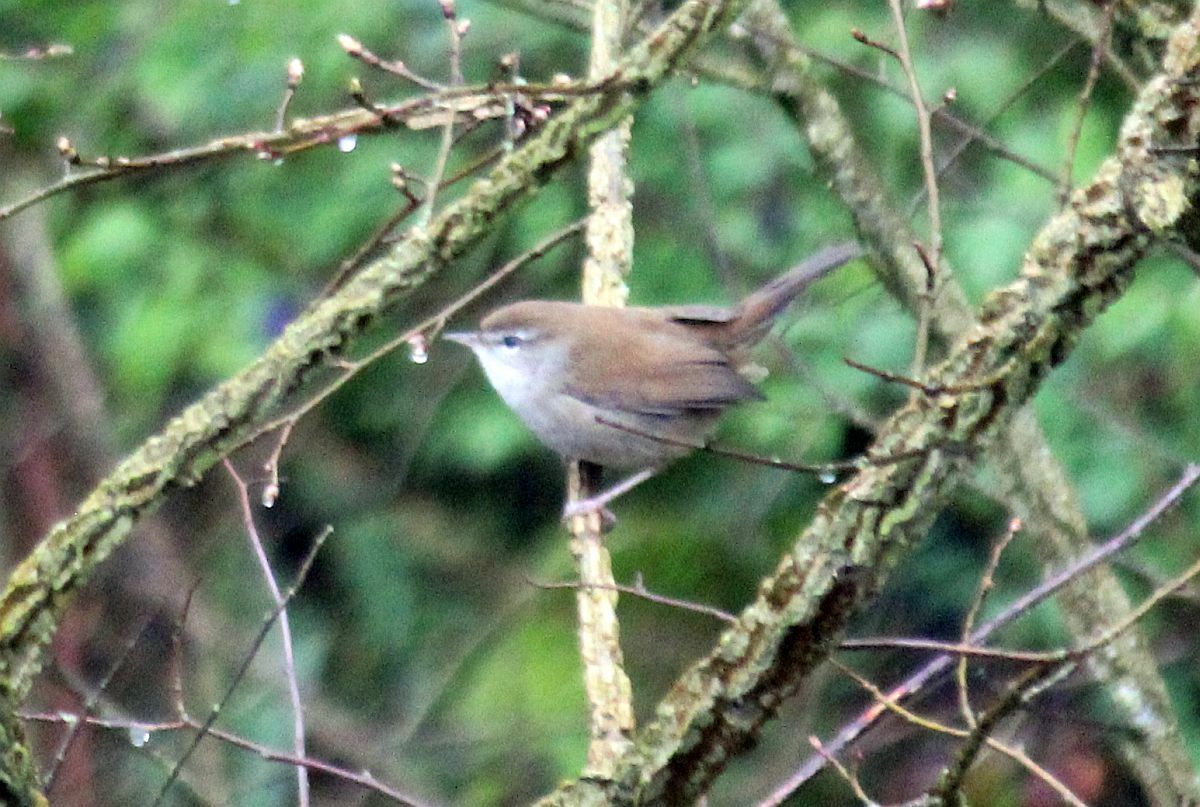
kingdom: Animalia
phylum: Chordata
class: Aves
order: Passeriformes
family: Cettiidae
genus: Cettia
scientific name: Cettia cetti
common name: Cetti's warbler
